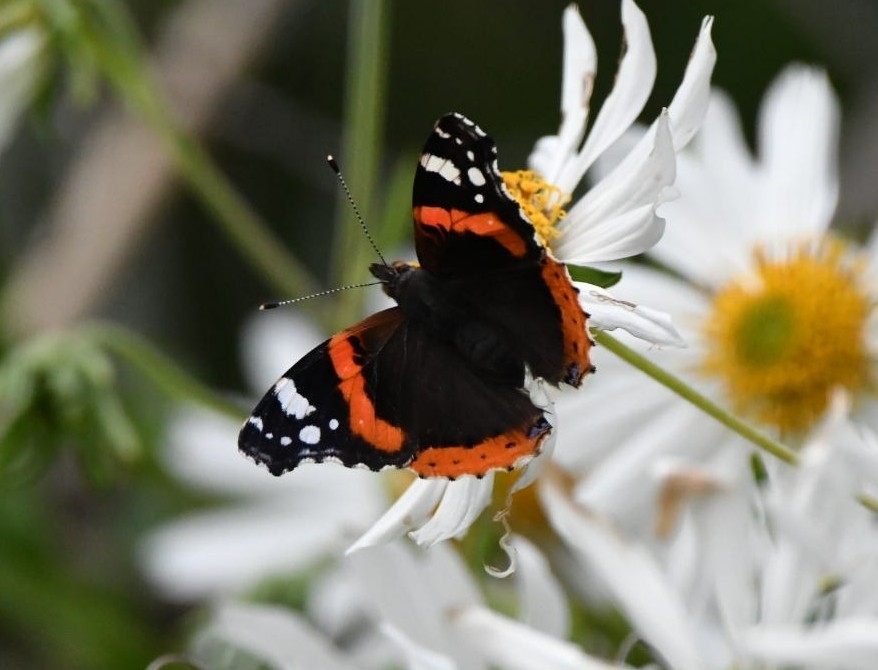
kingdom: Animalia
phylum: Arthropoda
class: Insecta
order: Lepidoptera
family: Nymphalidae
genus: Vanessa
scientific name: Vanessa atalanta
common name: Red admiral
